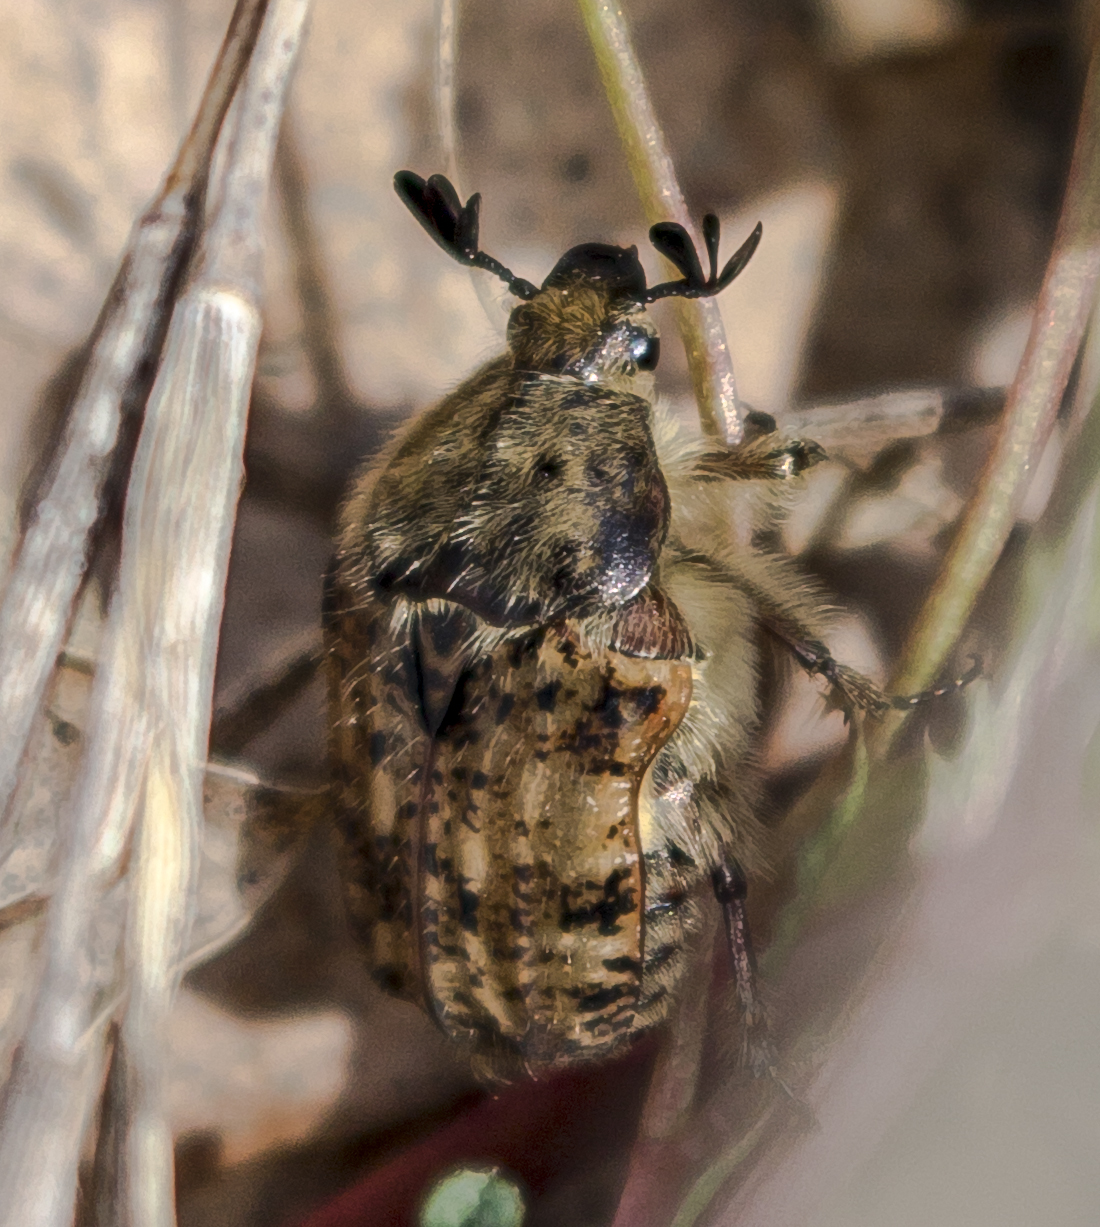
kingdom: Animalia
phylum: Arthropoda
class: Insecta
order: Coleoptera
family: Scarabaeidae
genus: Euphoria
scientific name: Euphoria inda
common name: Bumble flower beetle
